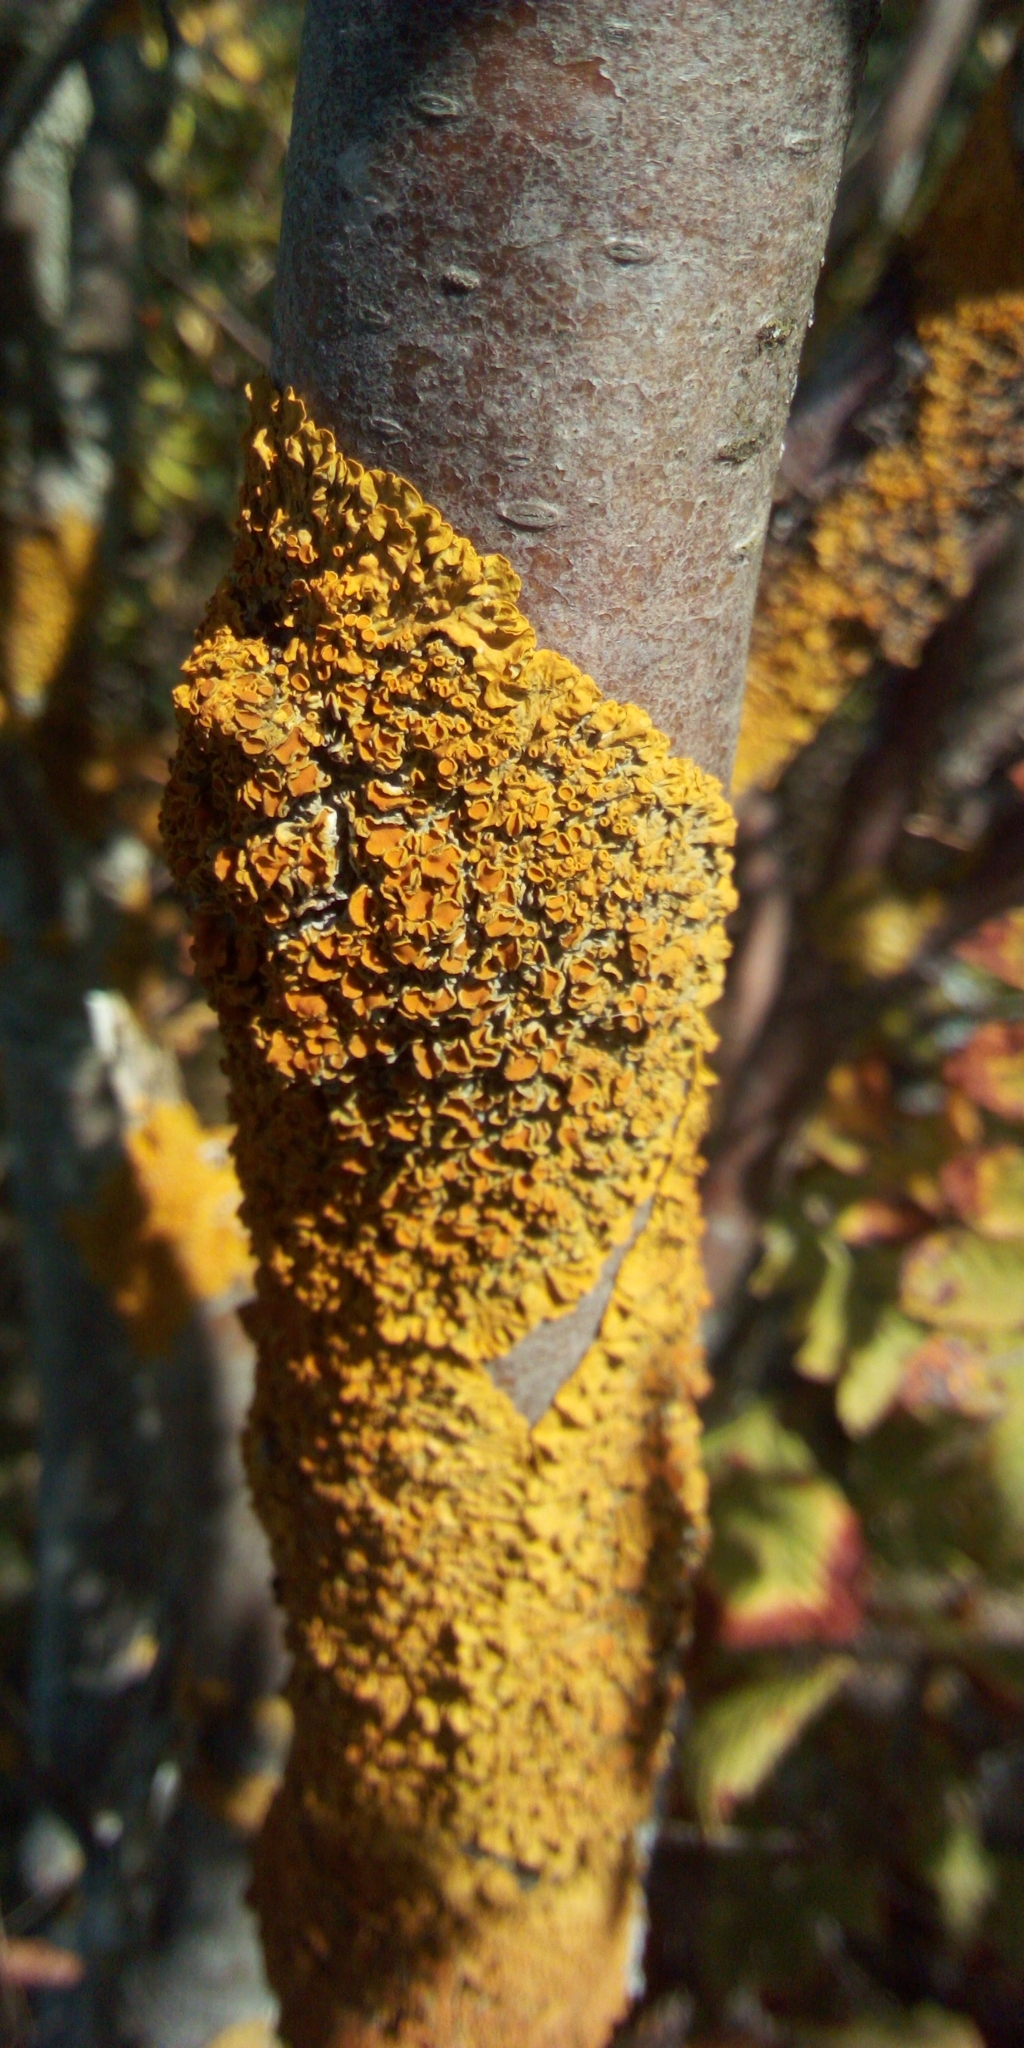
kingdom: Fungi
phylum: Ascomycota
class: Lecanoromycetes
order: Teloschistales
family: Teloschistaceae
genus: Xanthoria
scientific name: Xanthoria parietina
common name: Common orange lichen
